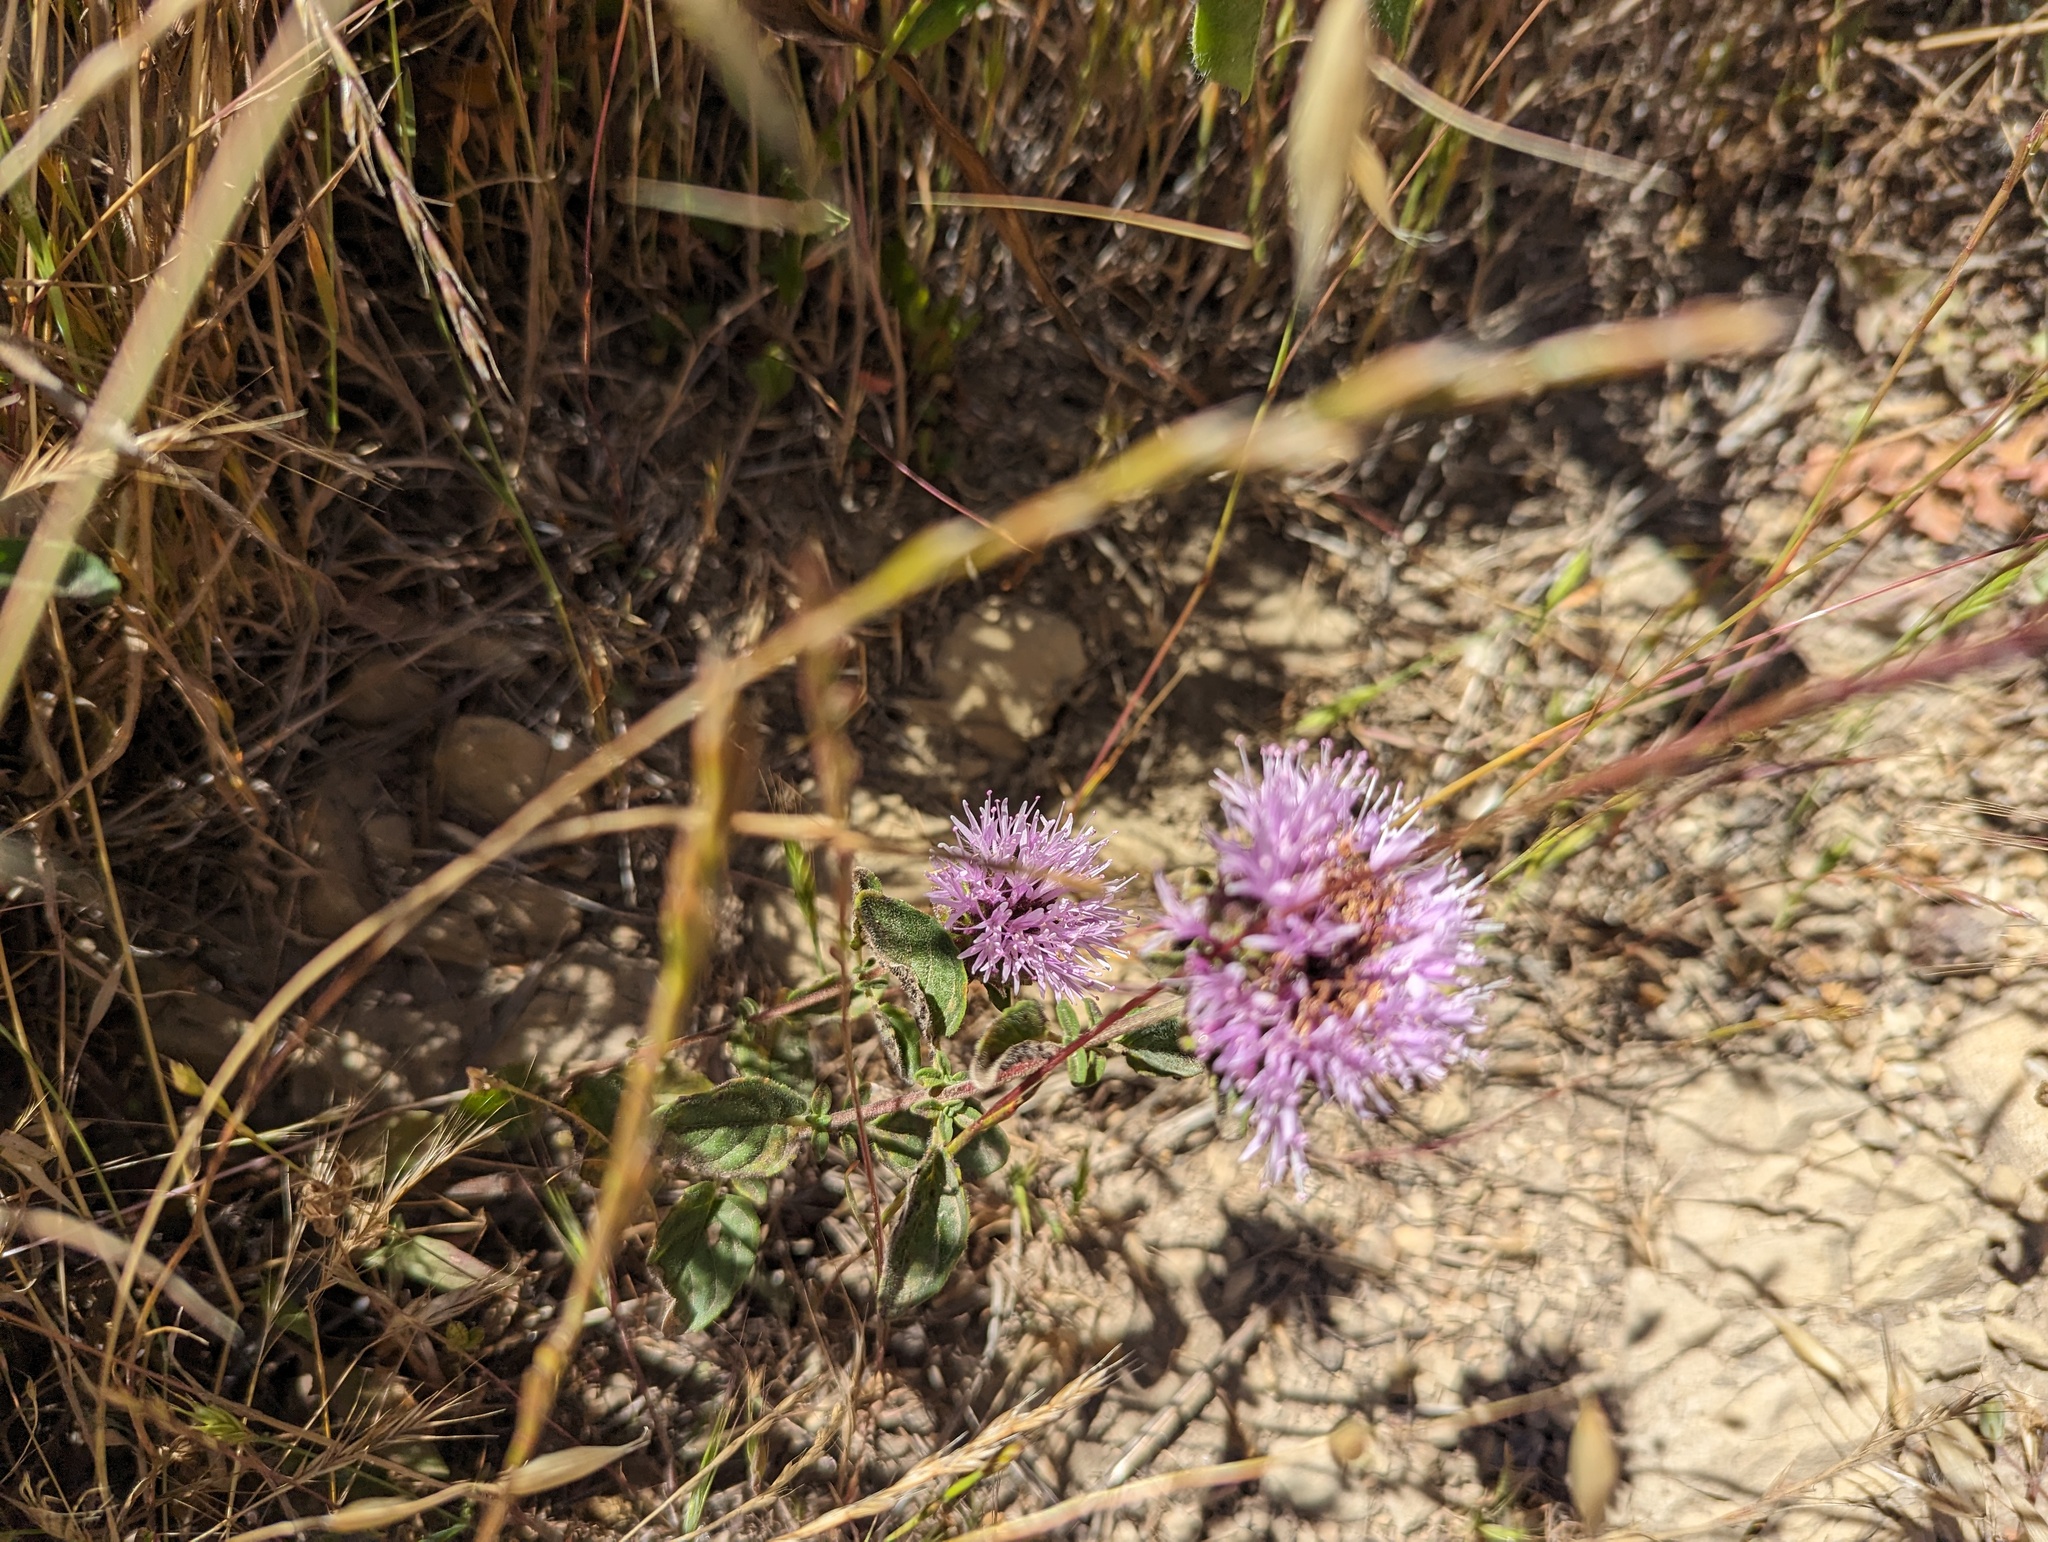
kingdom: Plantae
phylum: Tracheophyta
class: Magnoliopsida
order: Lamiales
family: Lamiaceae
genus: Monardella
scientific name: Monardella odoratissima
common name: Pacific monardella
